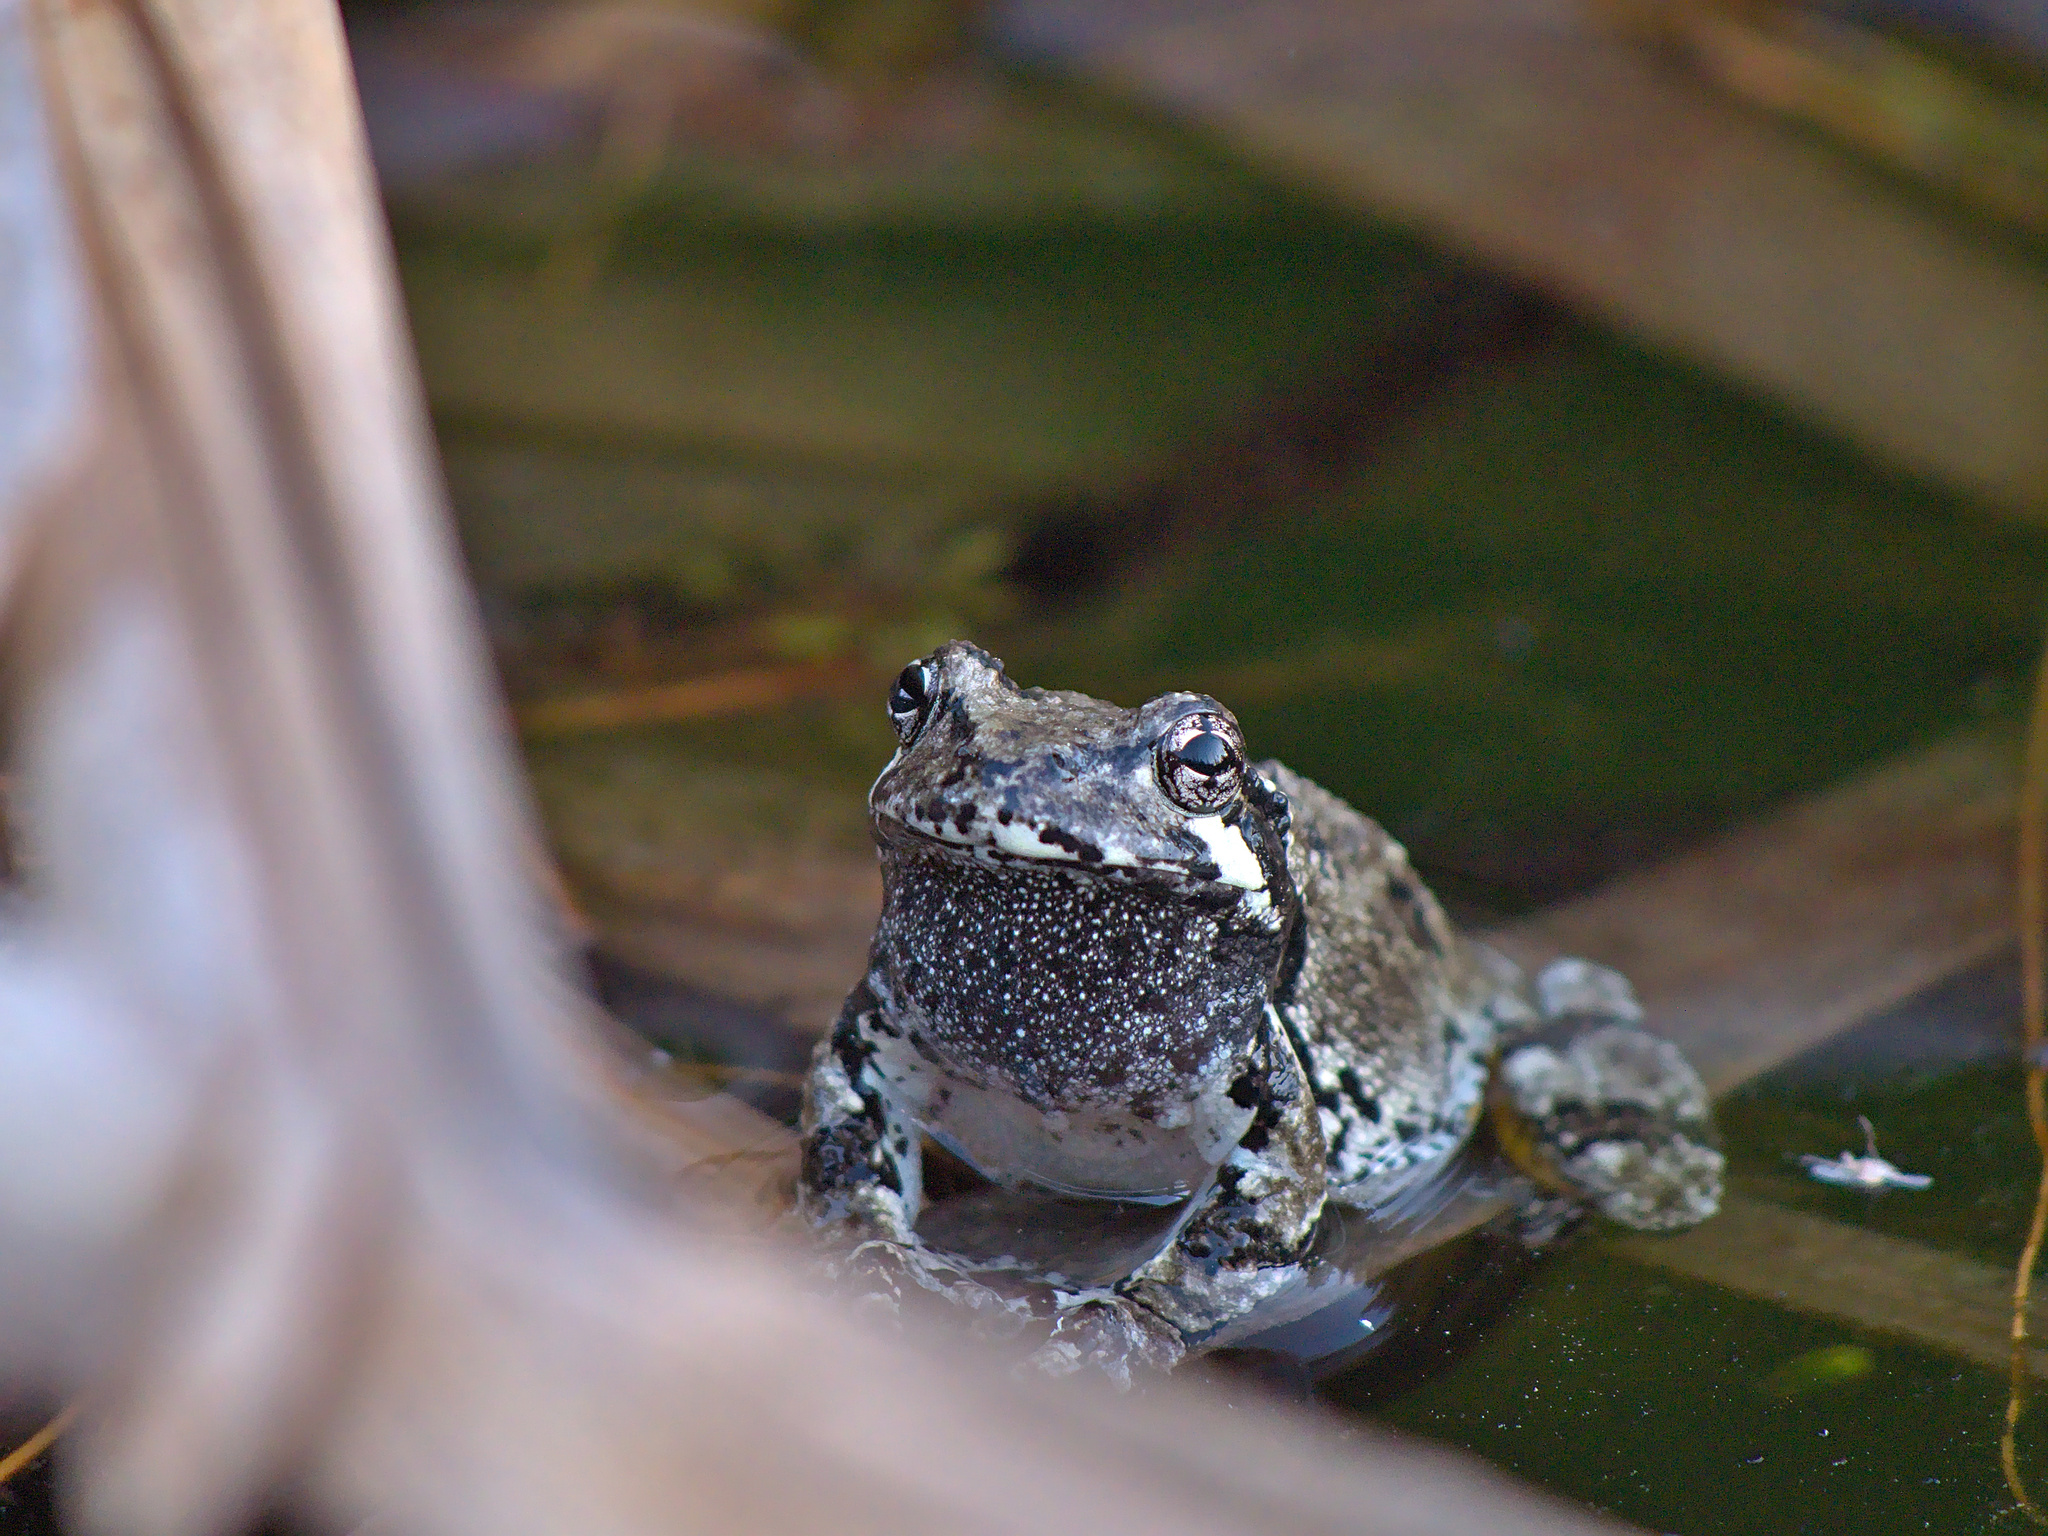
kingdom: Animalia
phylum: Chordata
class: Amphibia
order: Anura
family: Hylidae
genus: Dryophytes
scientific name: Dryophytes versicolor
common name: Gray treefrog
